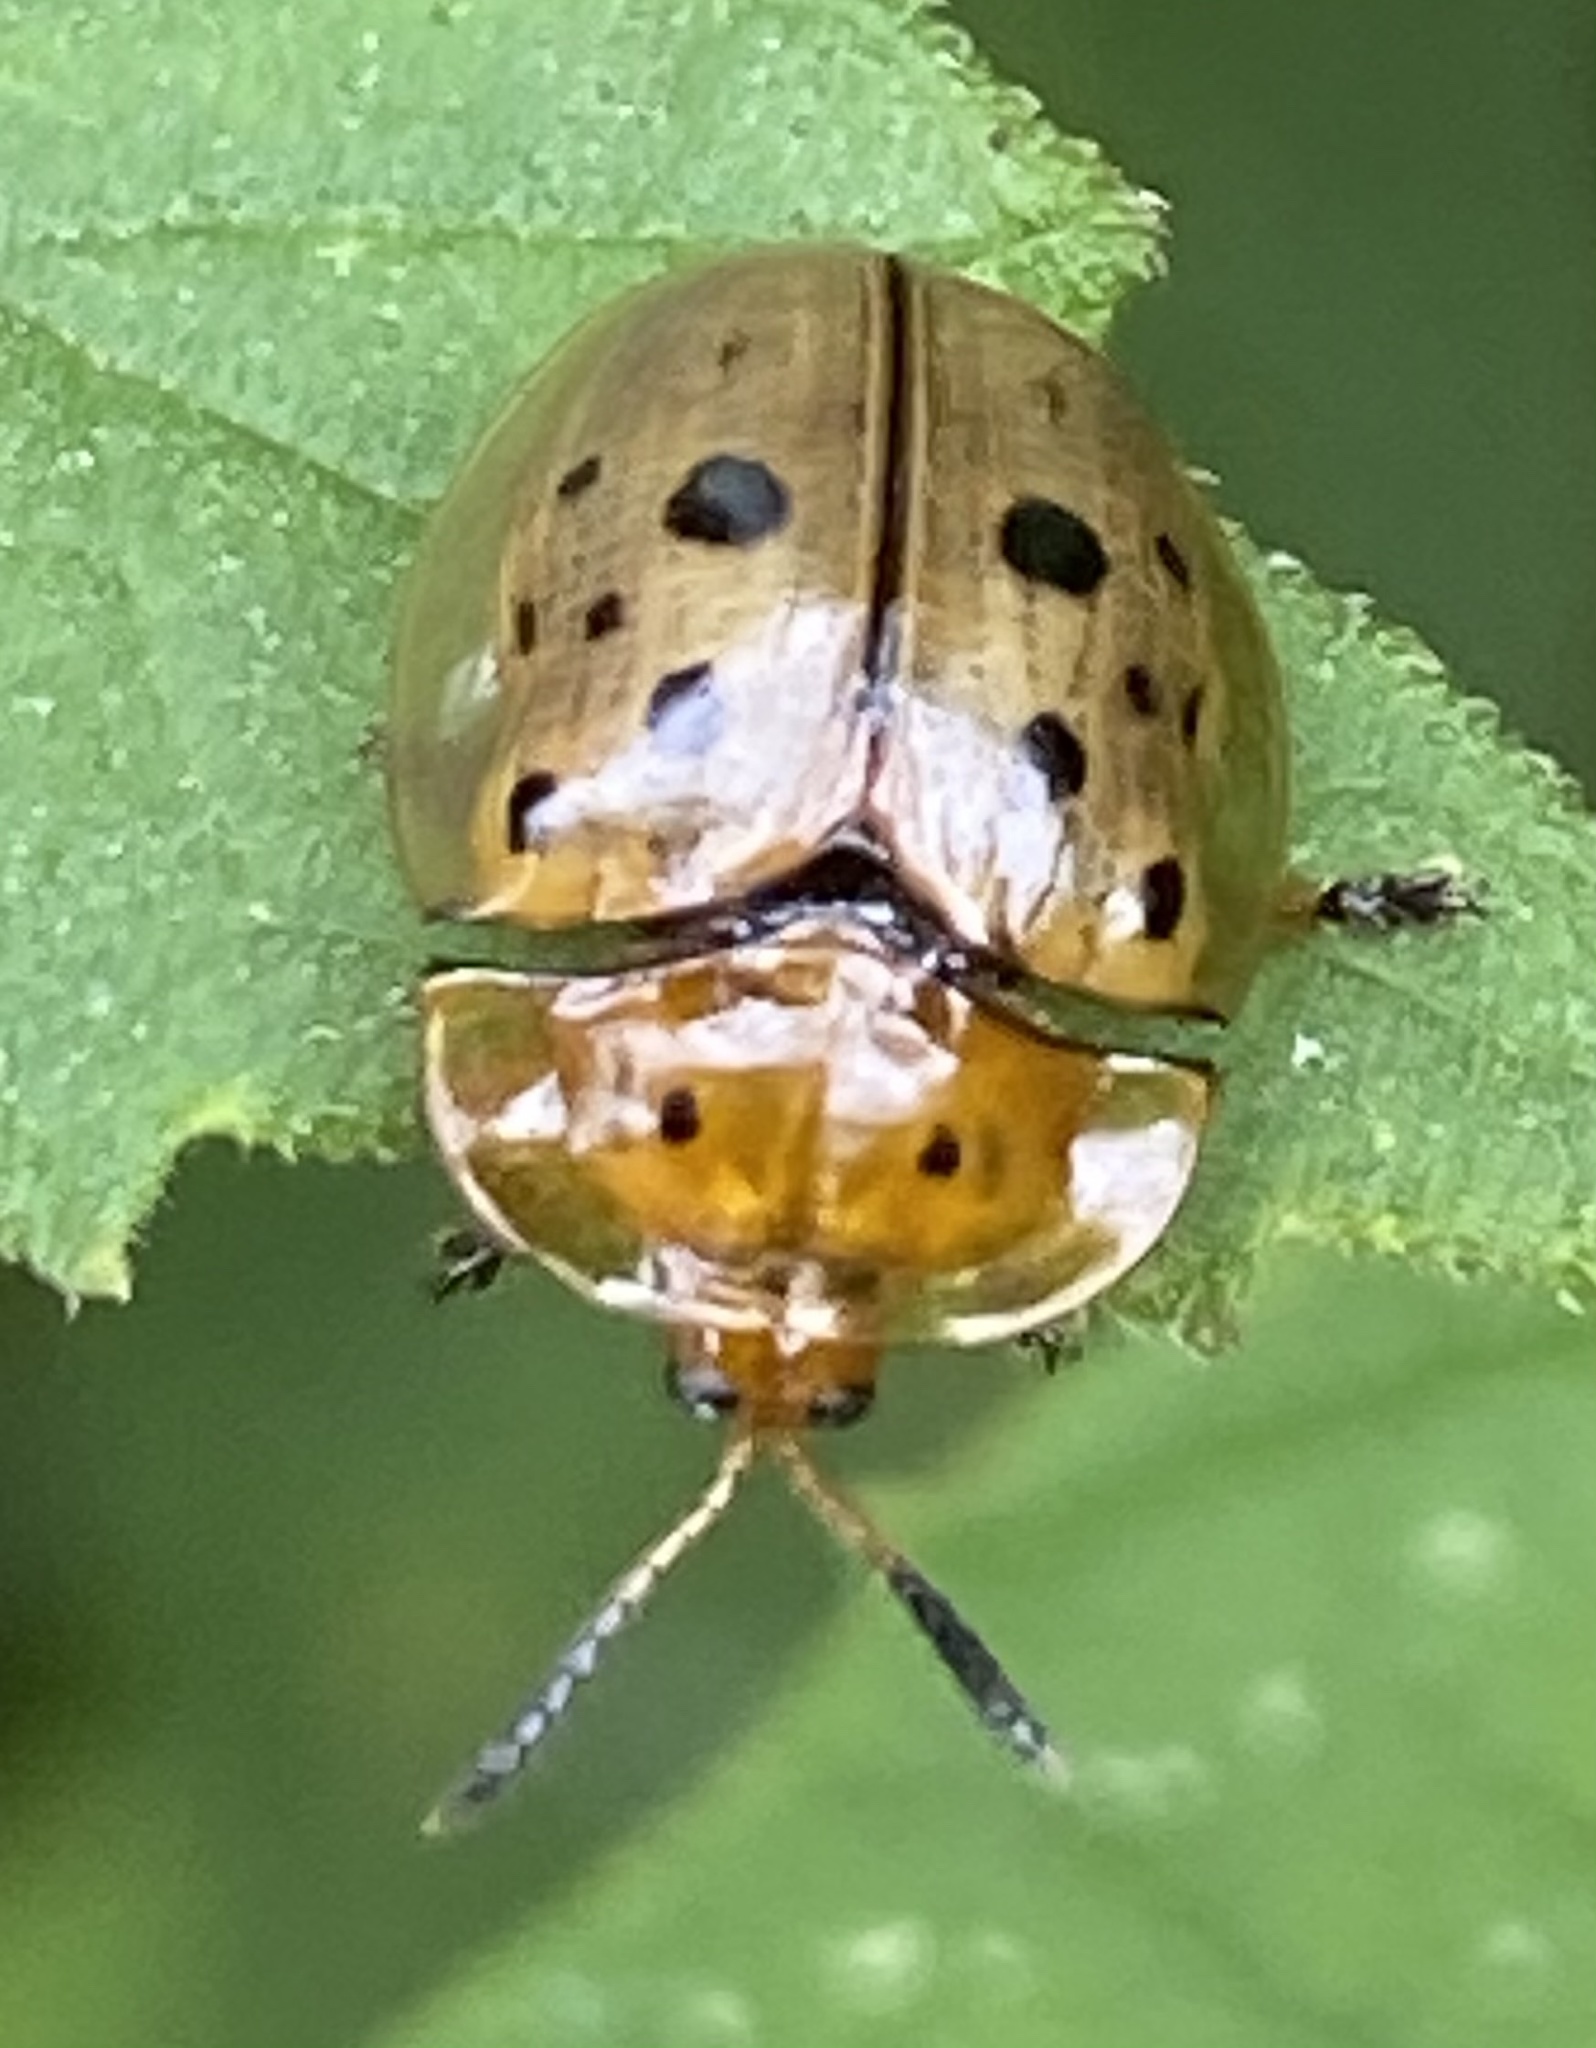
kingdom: Animalia
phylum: Arthropoda
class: Insecta
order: Coleoptera
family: Chrysomelidae
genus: Cistudinella
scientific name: Cistudinella notata
